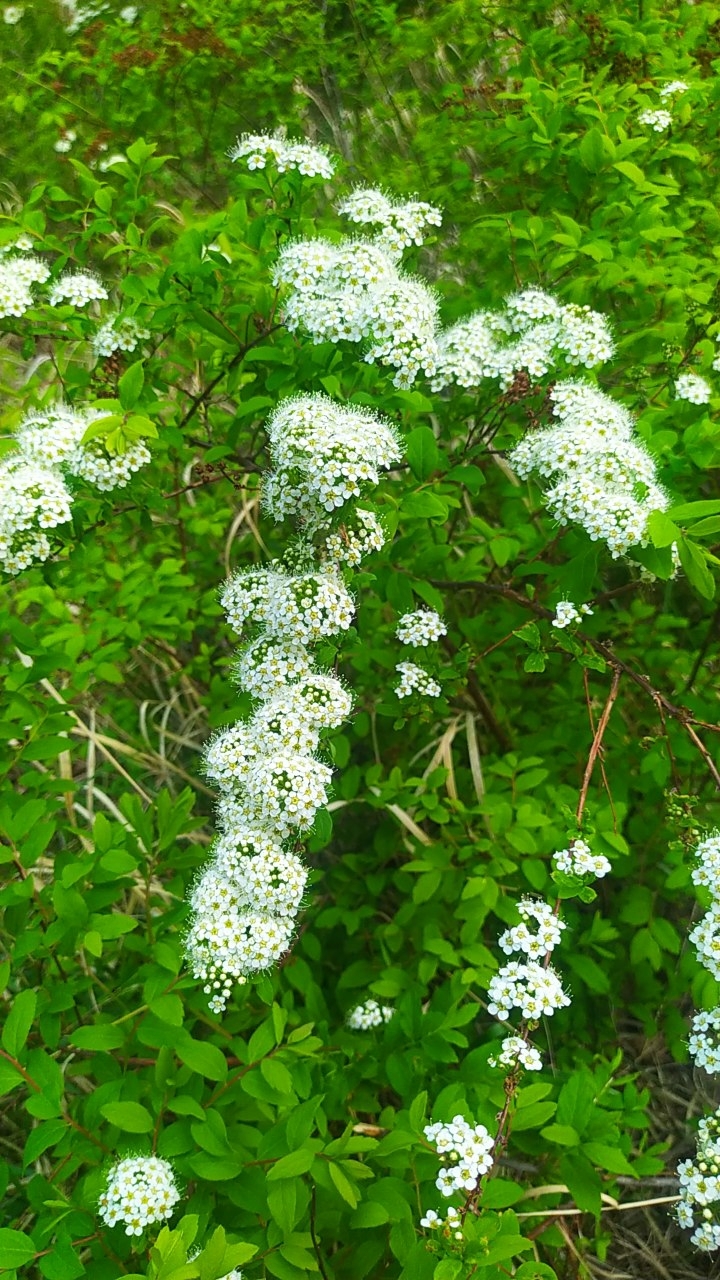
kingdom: Plantae
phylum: Tracheophyta
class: Magnoliopsida
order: Rosales
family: Rosaceae
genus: Spiraea
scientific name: Spiraea media
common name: Russian spiraea
